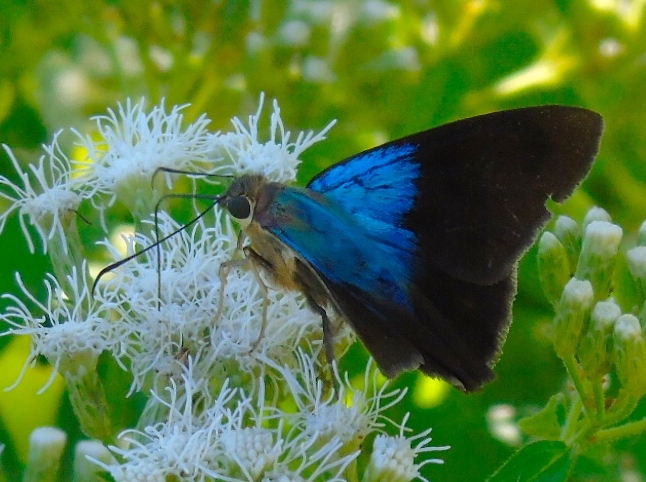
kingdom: Animalia
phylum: Arthropoda
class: Insecta
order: Lepidoptera
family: Hesperiidae
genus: Astraptes
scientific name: Astraptes alector
